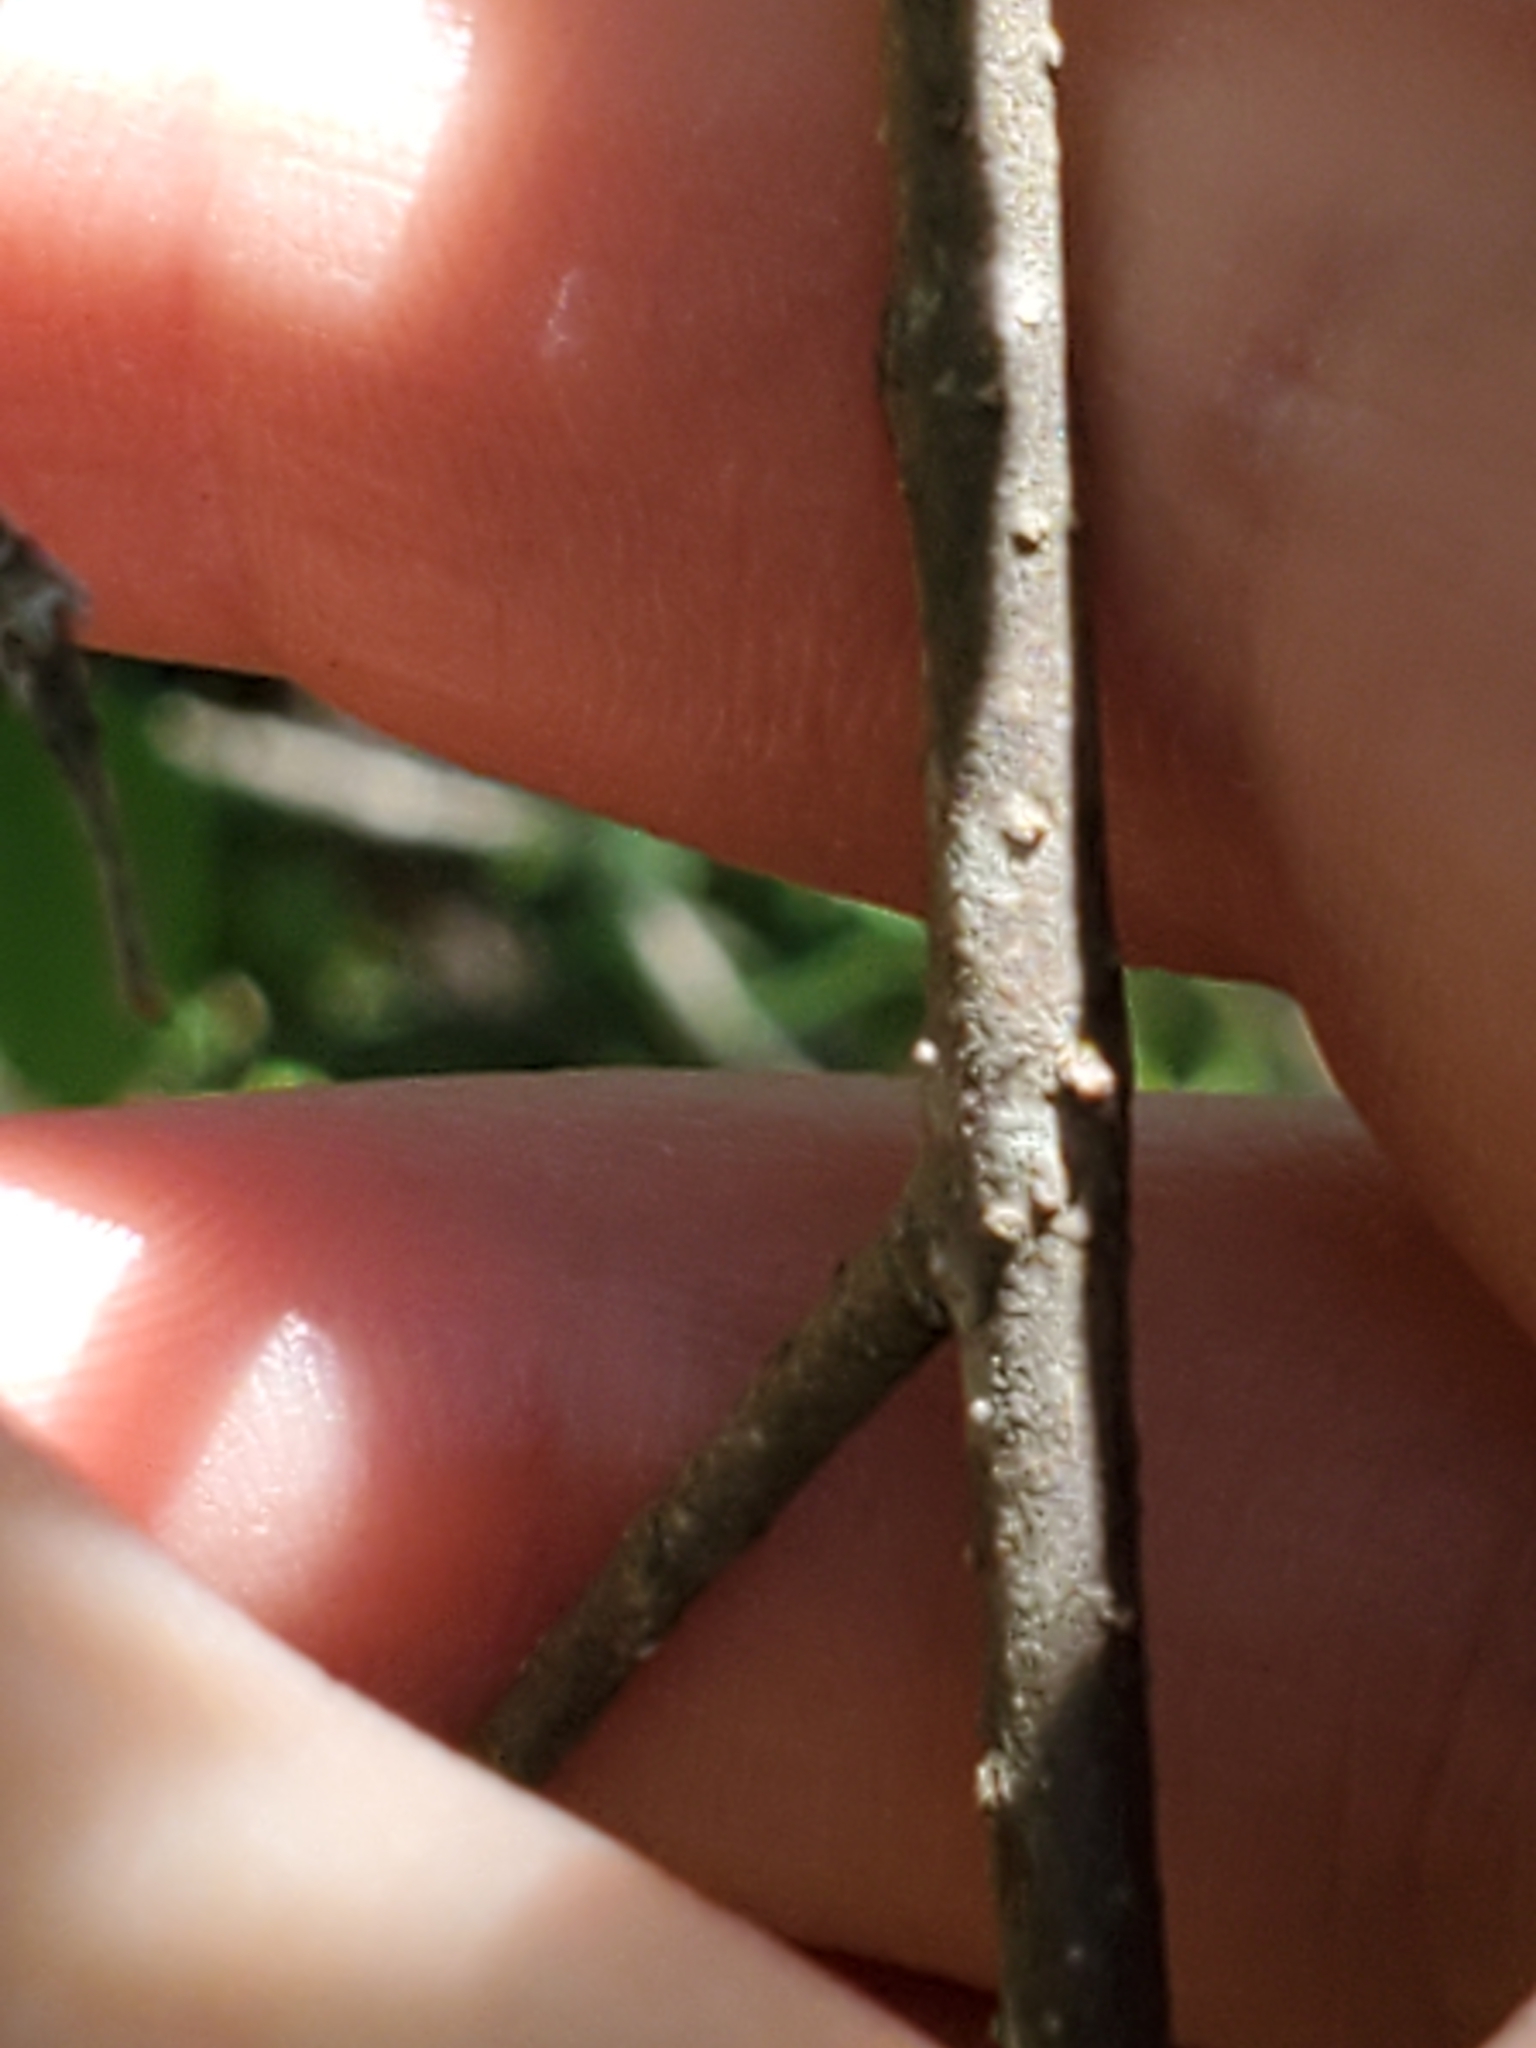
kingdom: Plantae
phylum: Tracheophyta
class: Magnoliopsida
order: Lamiales
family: Oleaceae
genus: Forestiera
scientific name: Forestiera reticulata
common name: Netleaf swamp-privet
